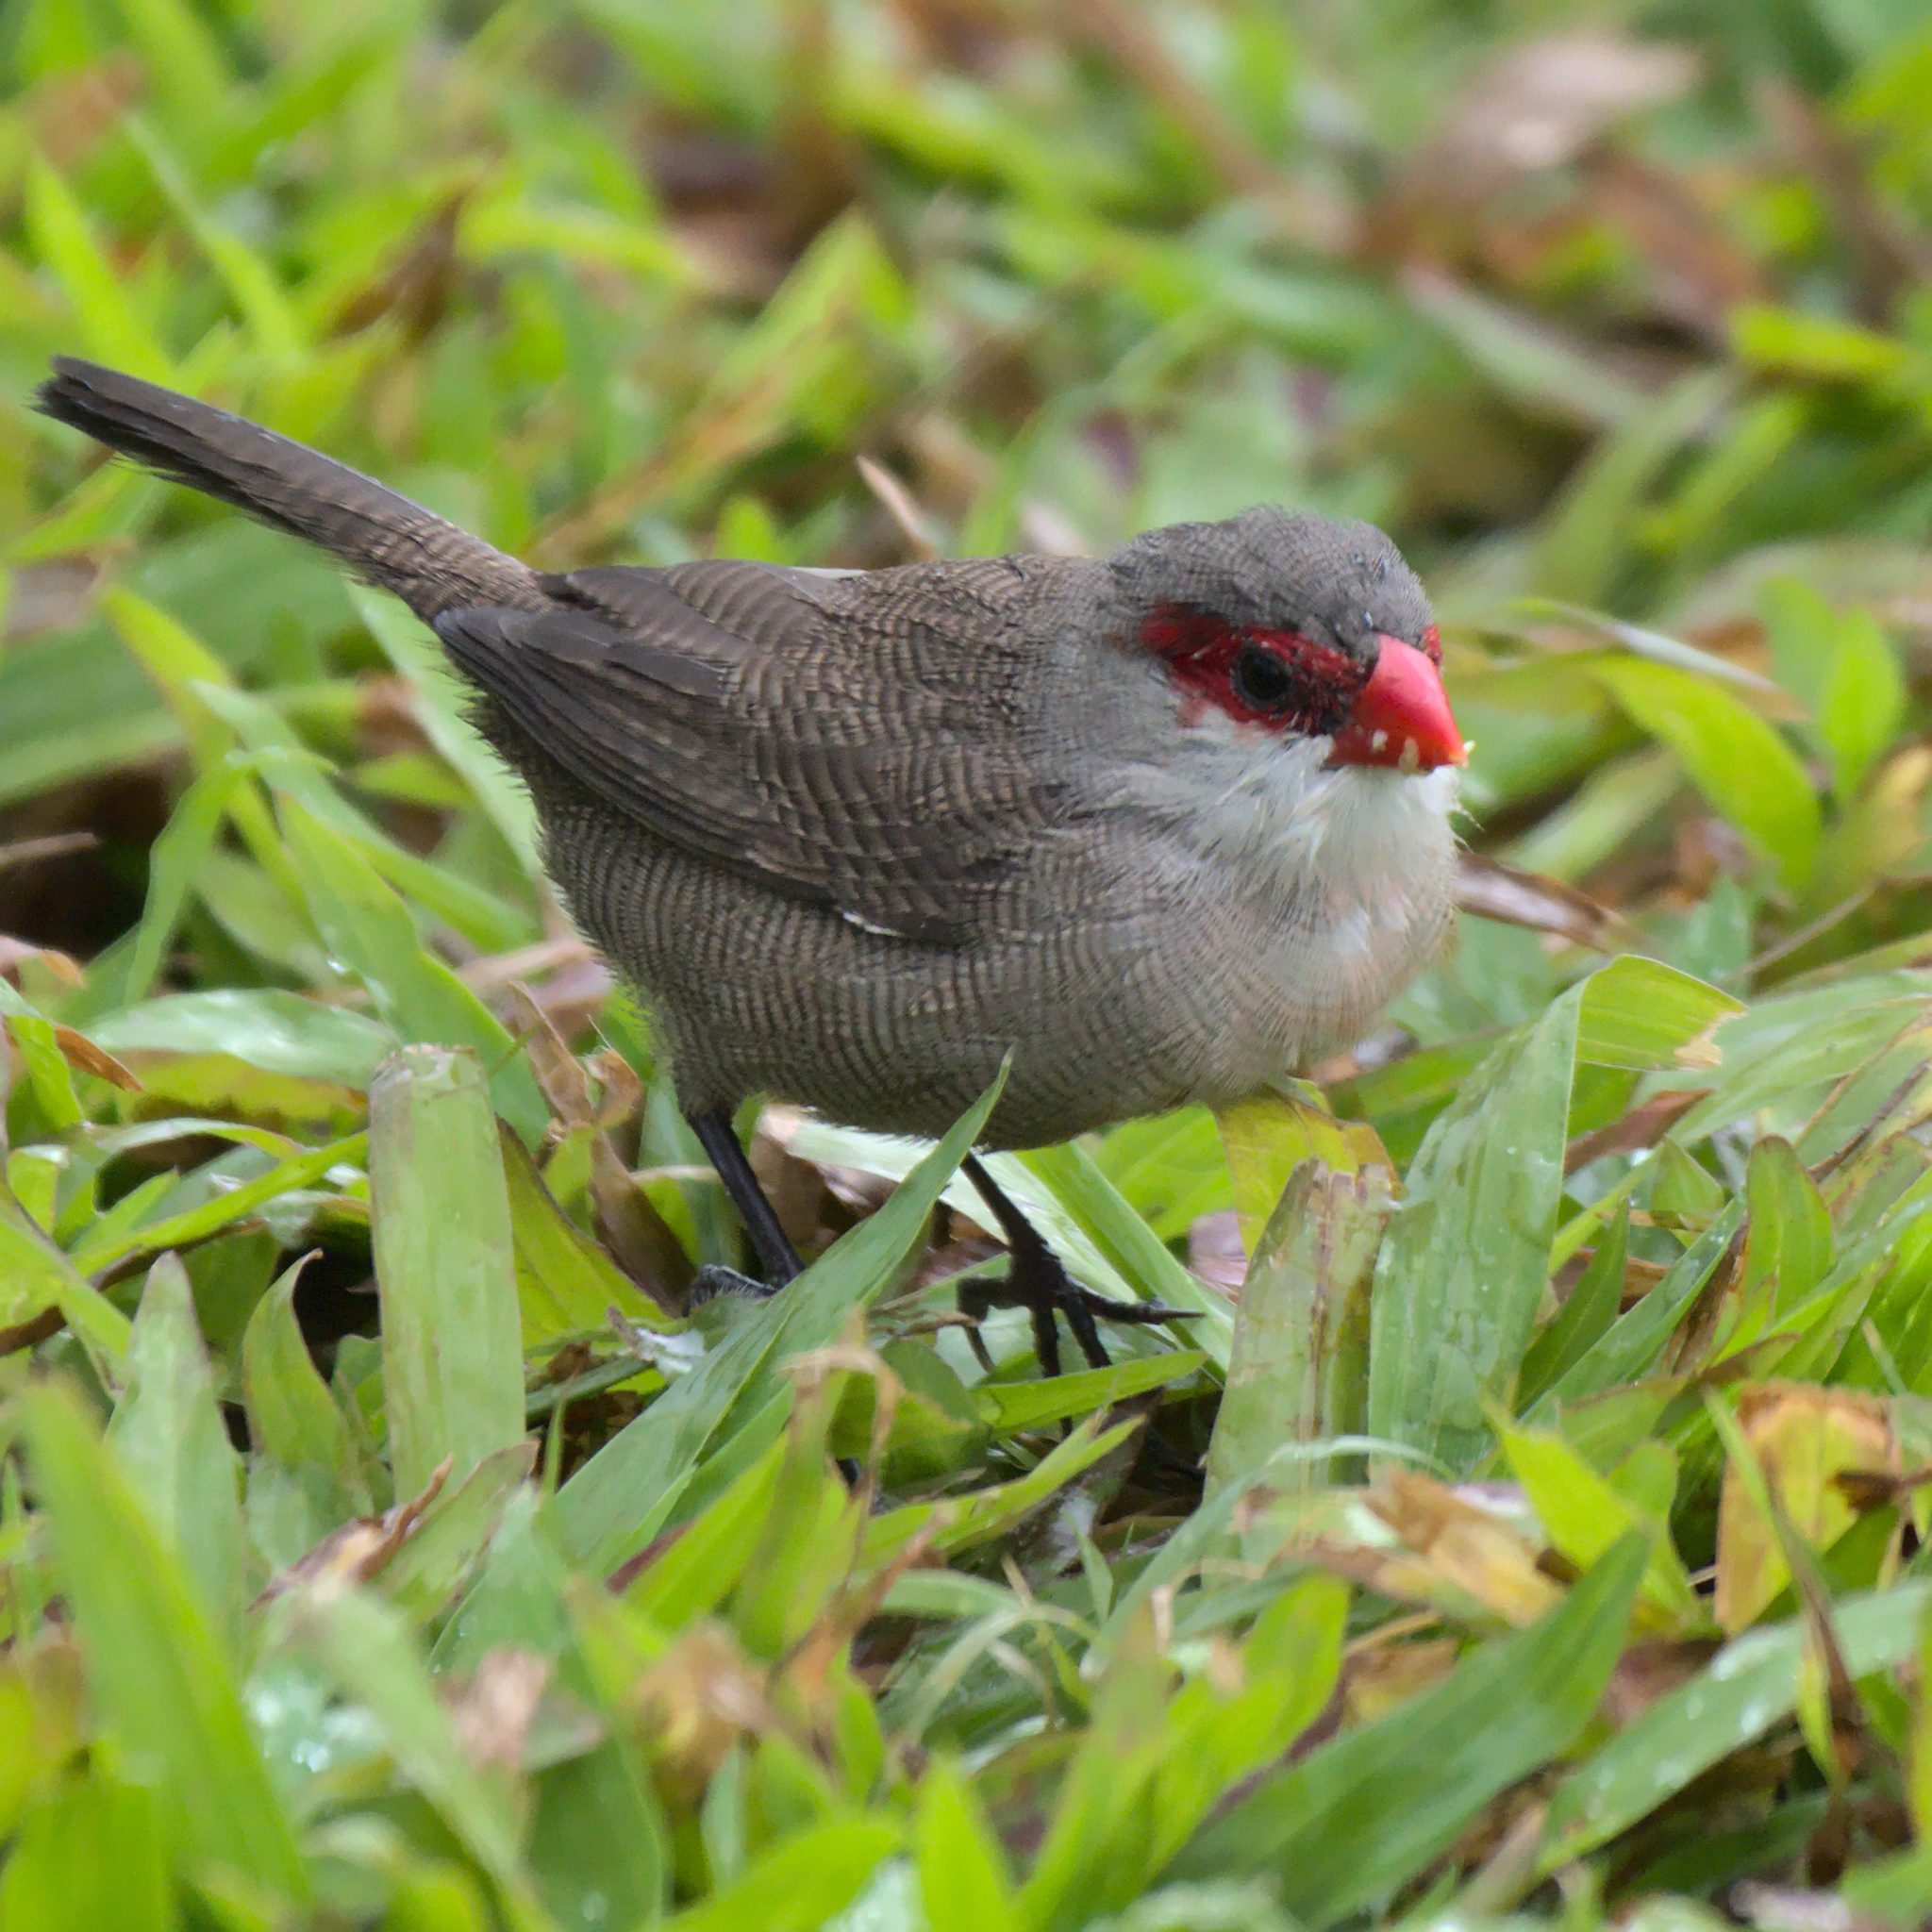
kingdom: Animalia
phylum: Chordata
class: Aves
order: Passeriformes
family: Estrildidae
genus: Estrilda
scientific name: Estrilda astrild
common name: Common waxbill
